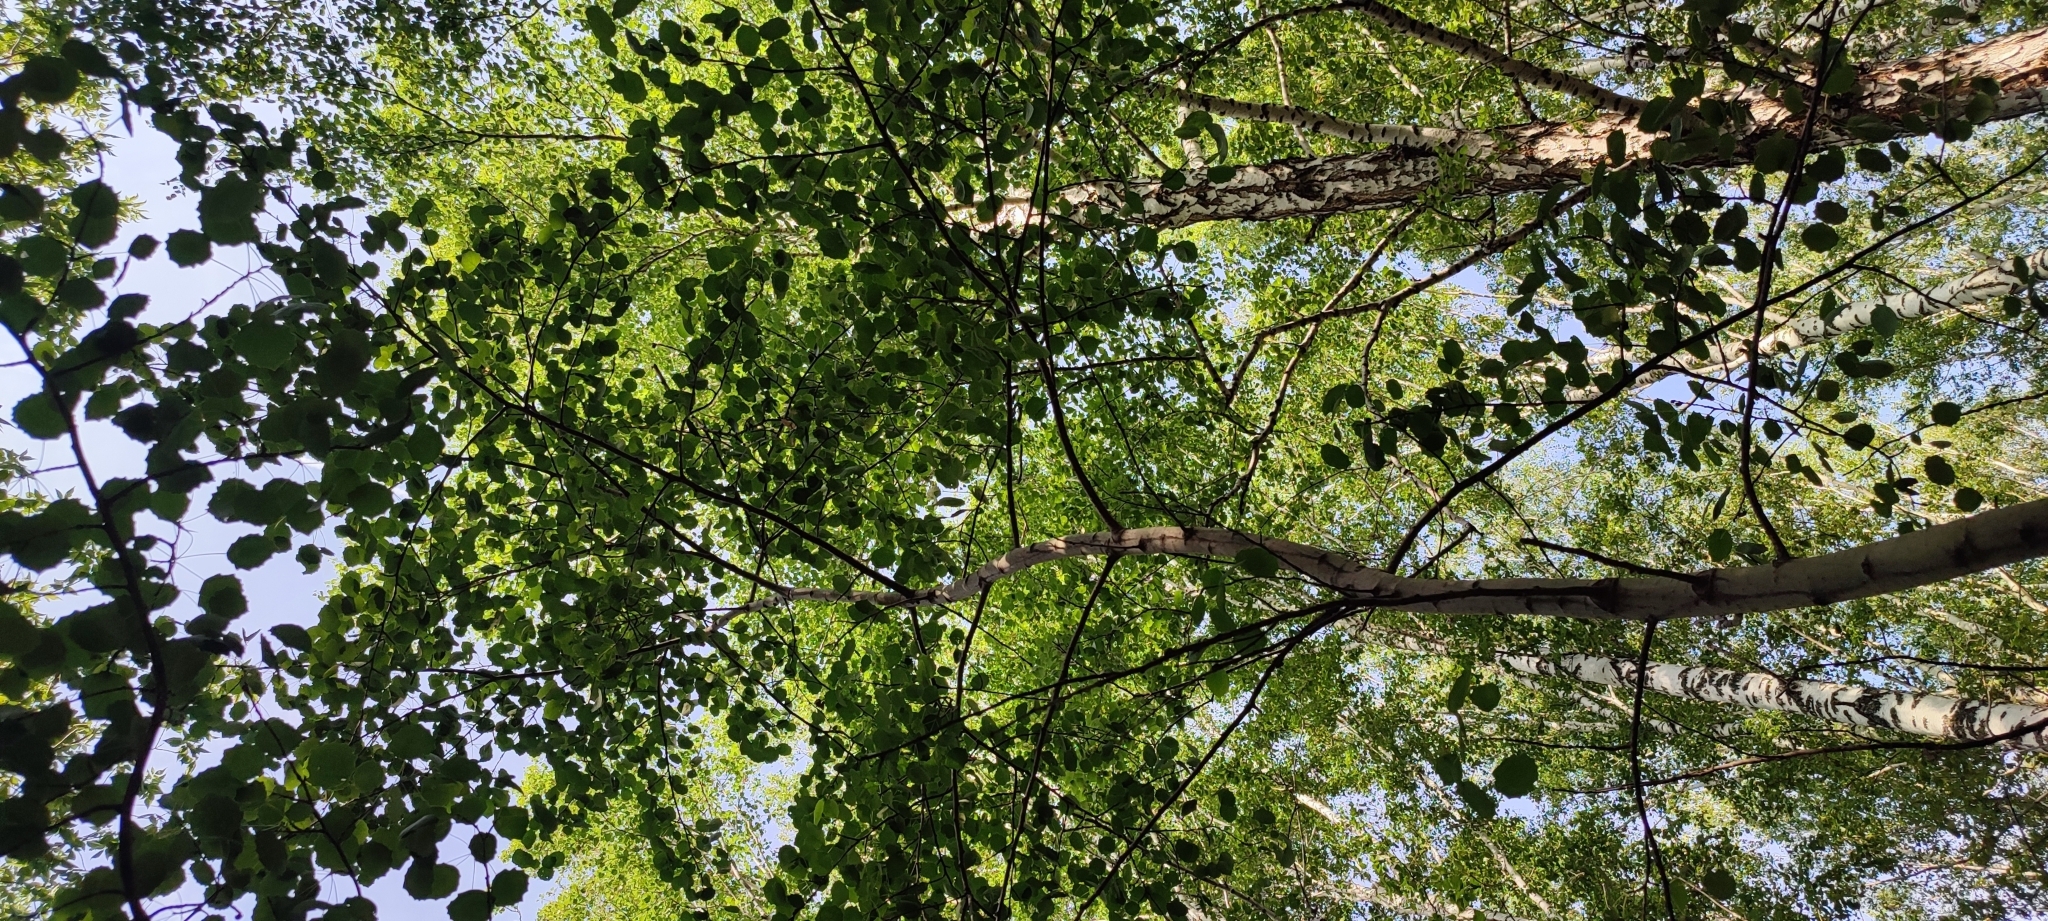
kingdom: Plantae
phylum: Tracheophyta
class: Magnoliopsida
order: Malpighiales
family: Salicaceae
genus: Populus
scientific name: Populus tremula
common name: European aspen
